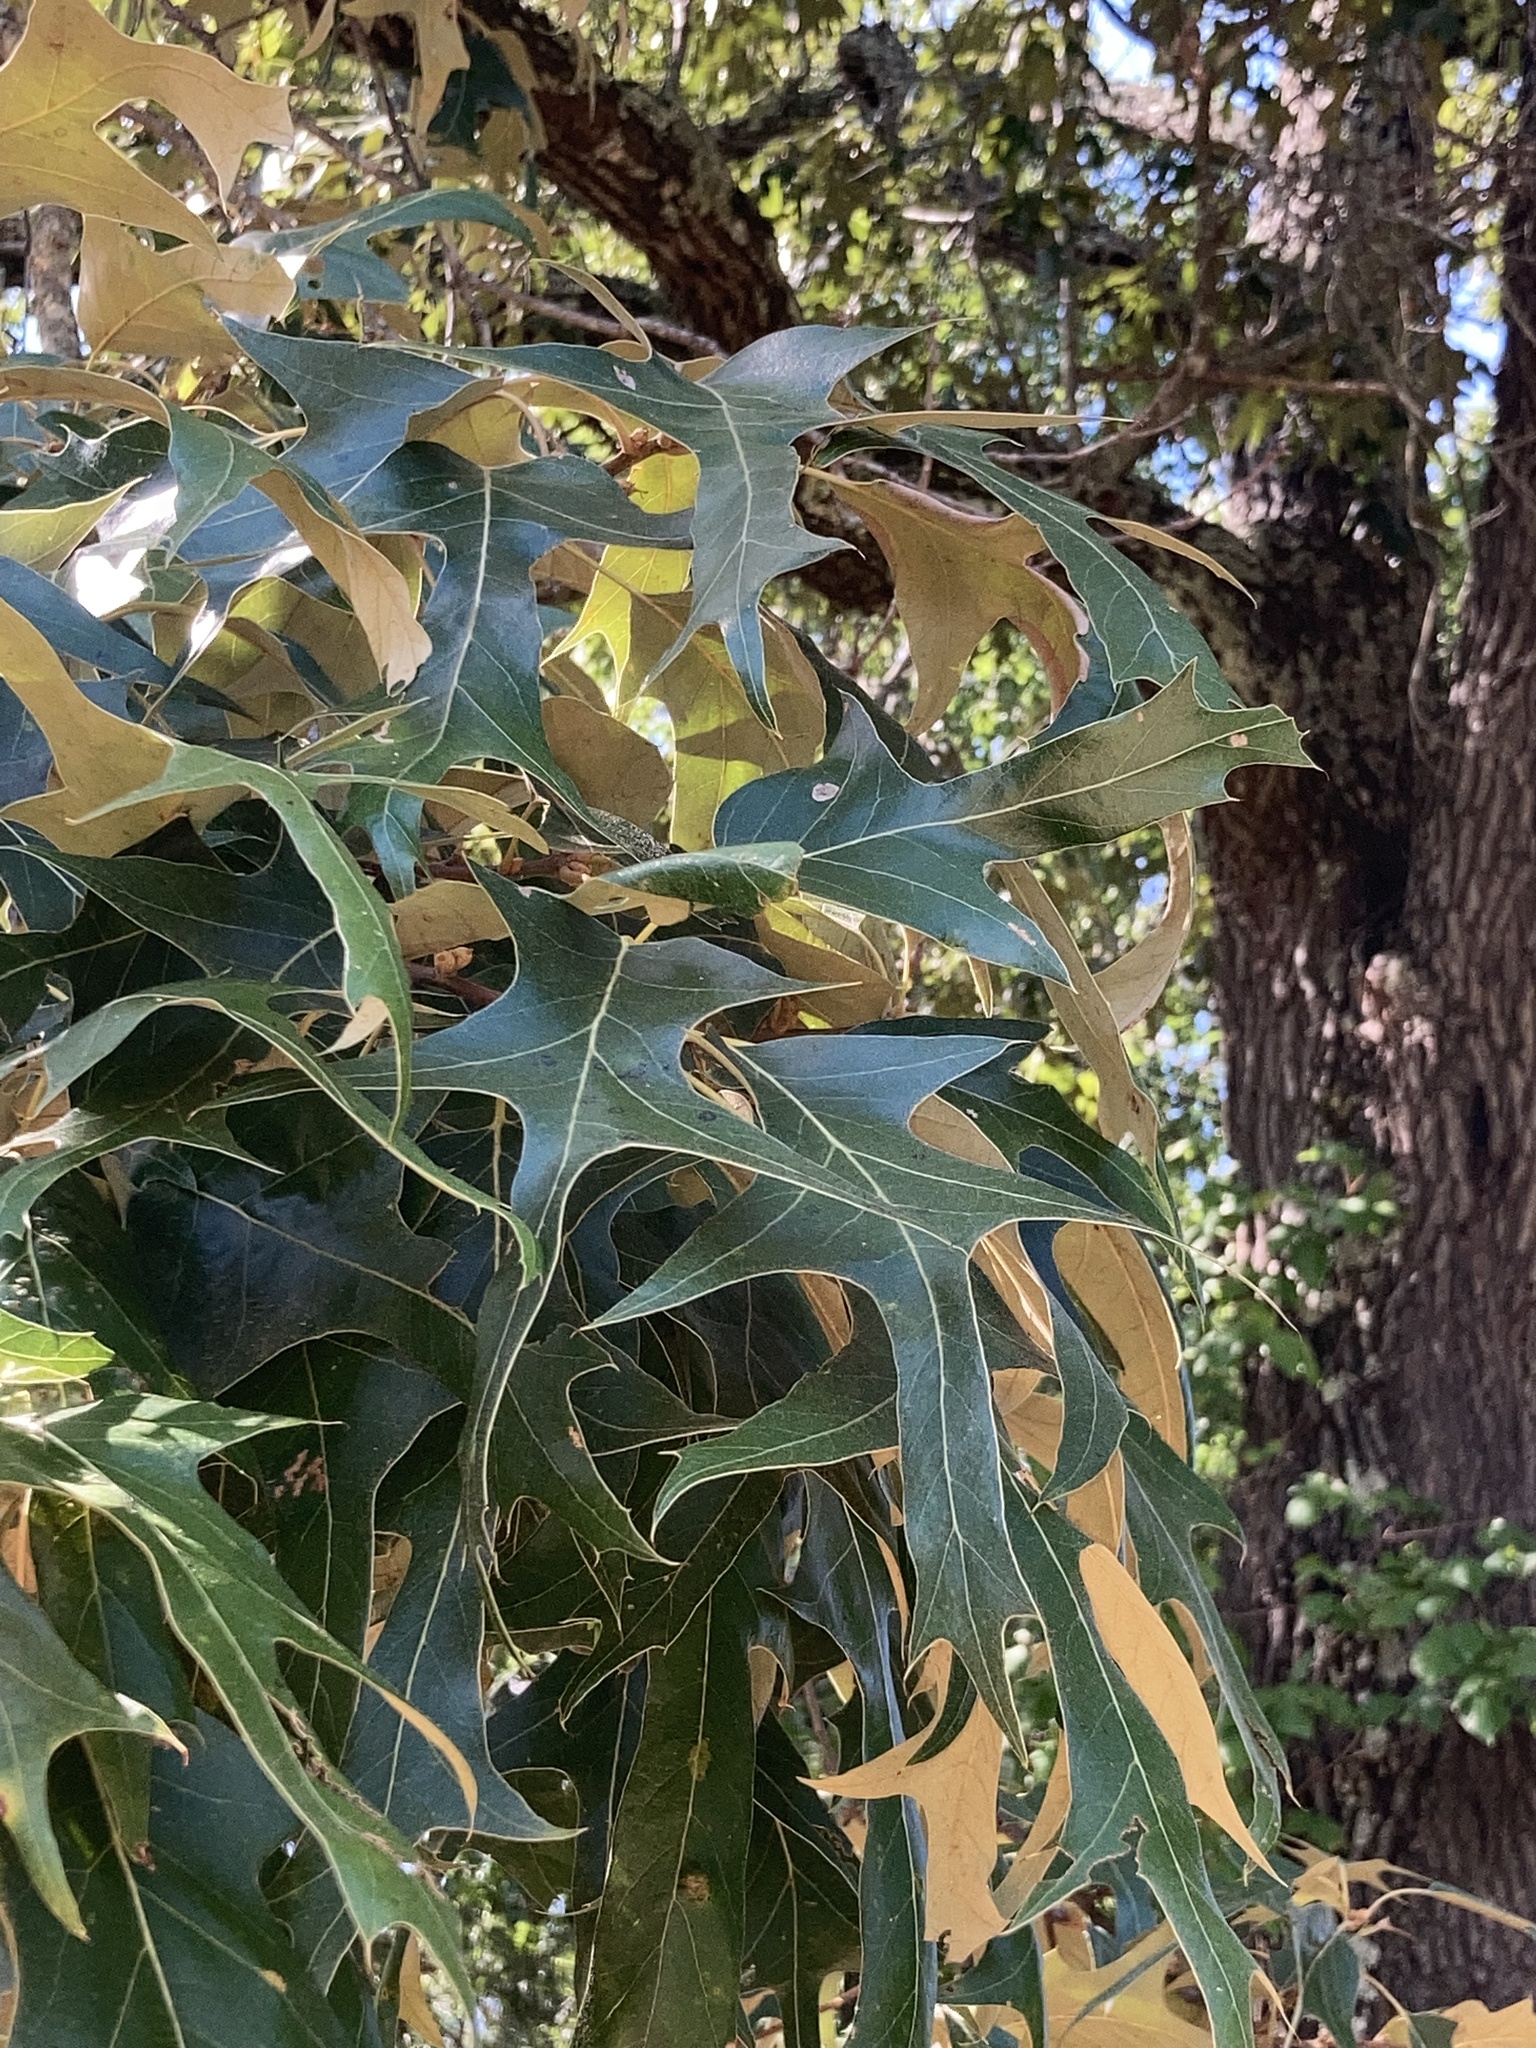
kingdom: Plantae
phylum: Tracheophyta
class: Magnoliopsida
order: Fagales
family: Fagaceae
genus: Quercus
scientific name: Quercus falcata
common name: Southern red oak
